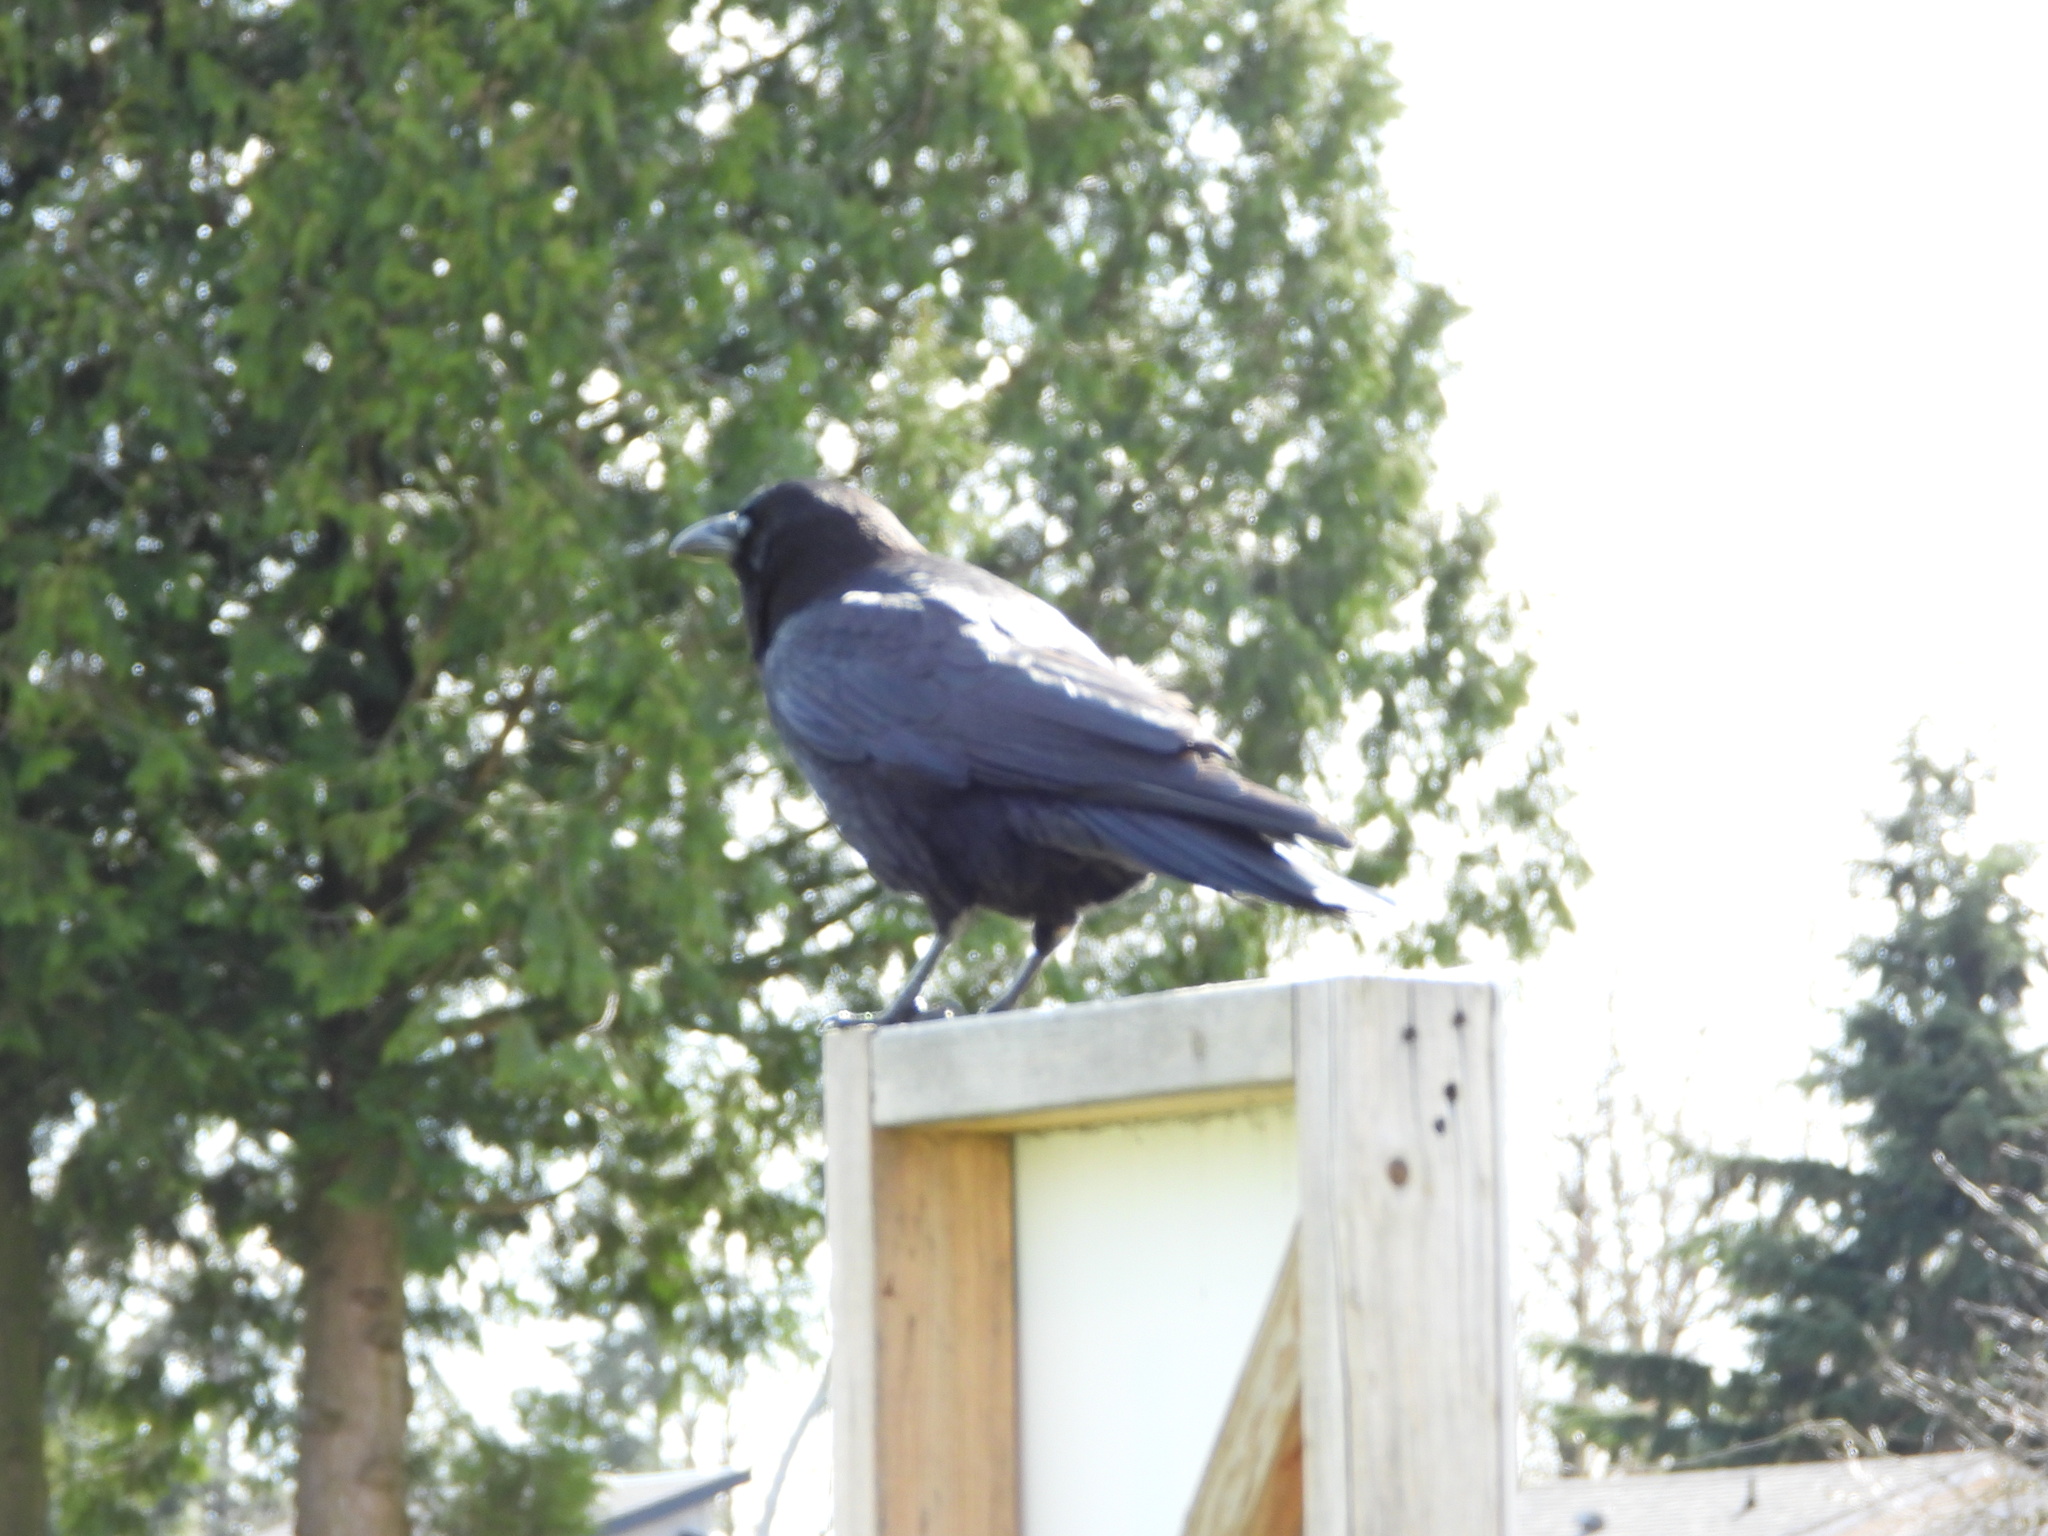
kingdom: Animalia
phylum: Chordata
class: Aves
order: Passeriformes
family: Corvidae
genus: Corvus
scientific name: Corvus brachyrhynchos
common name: American crow
